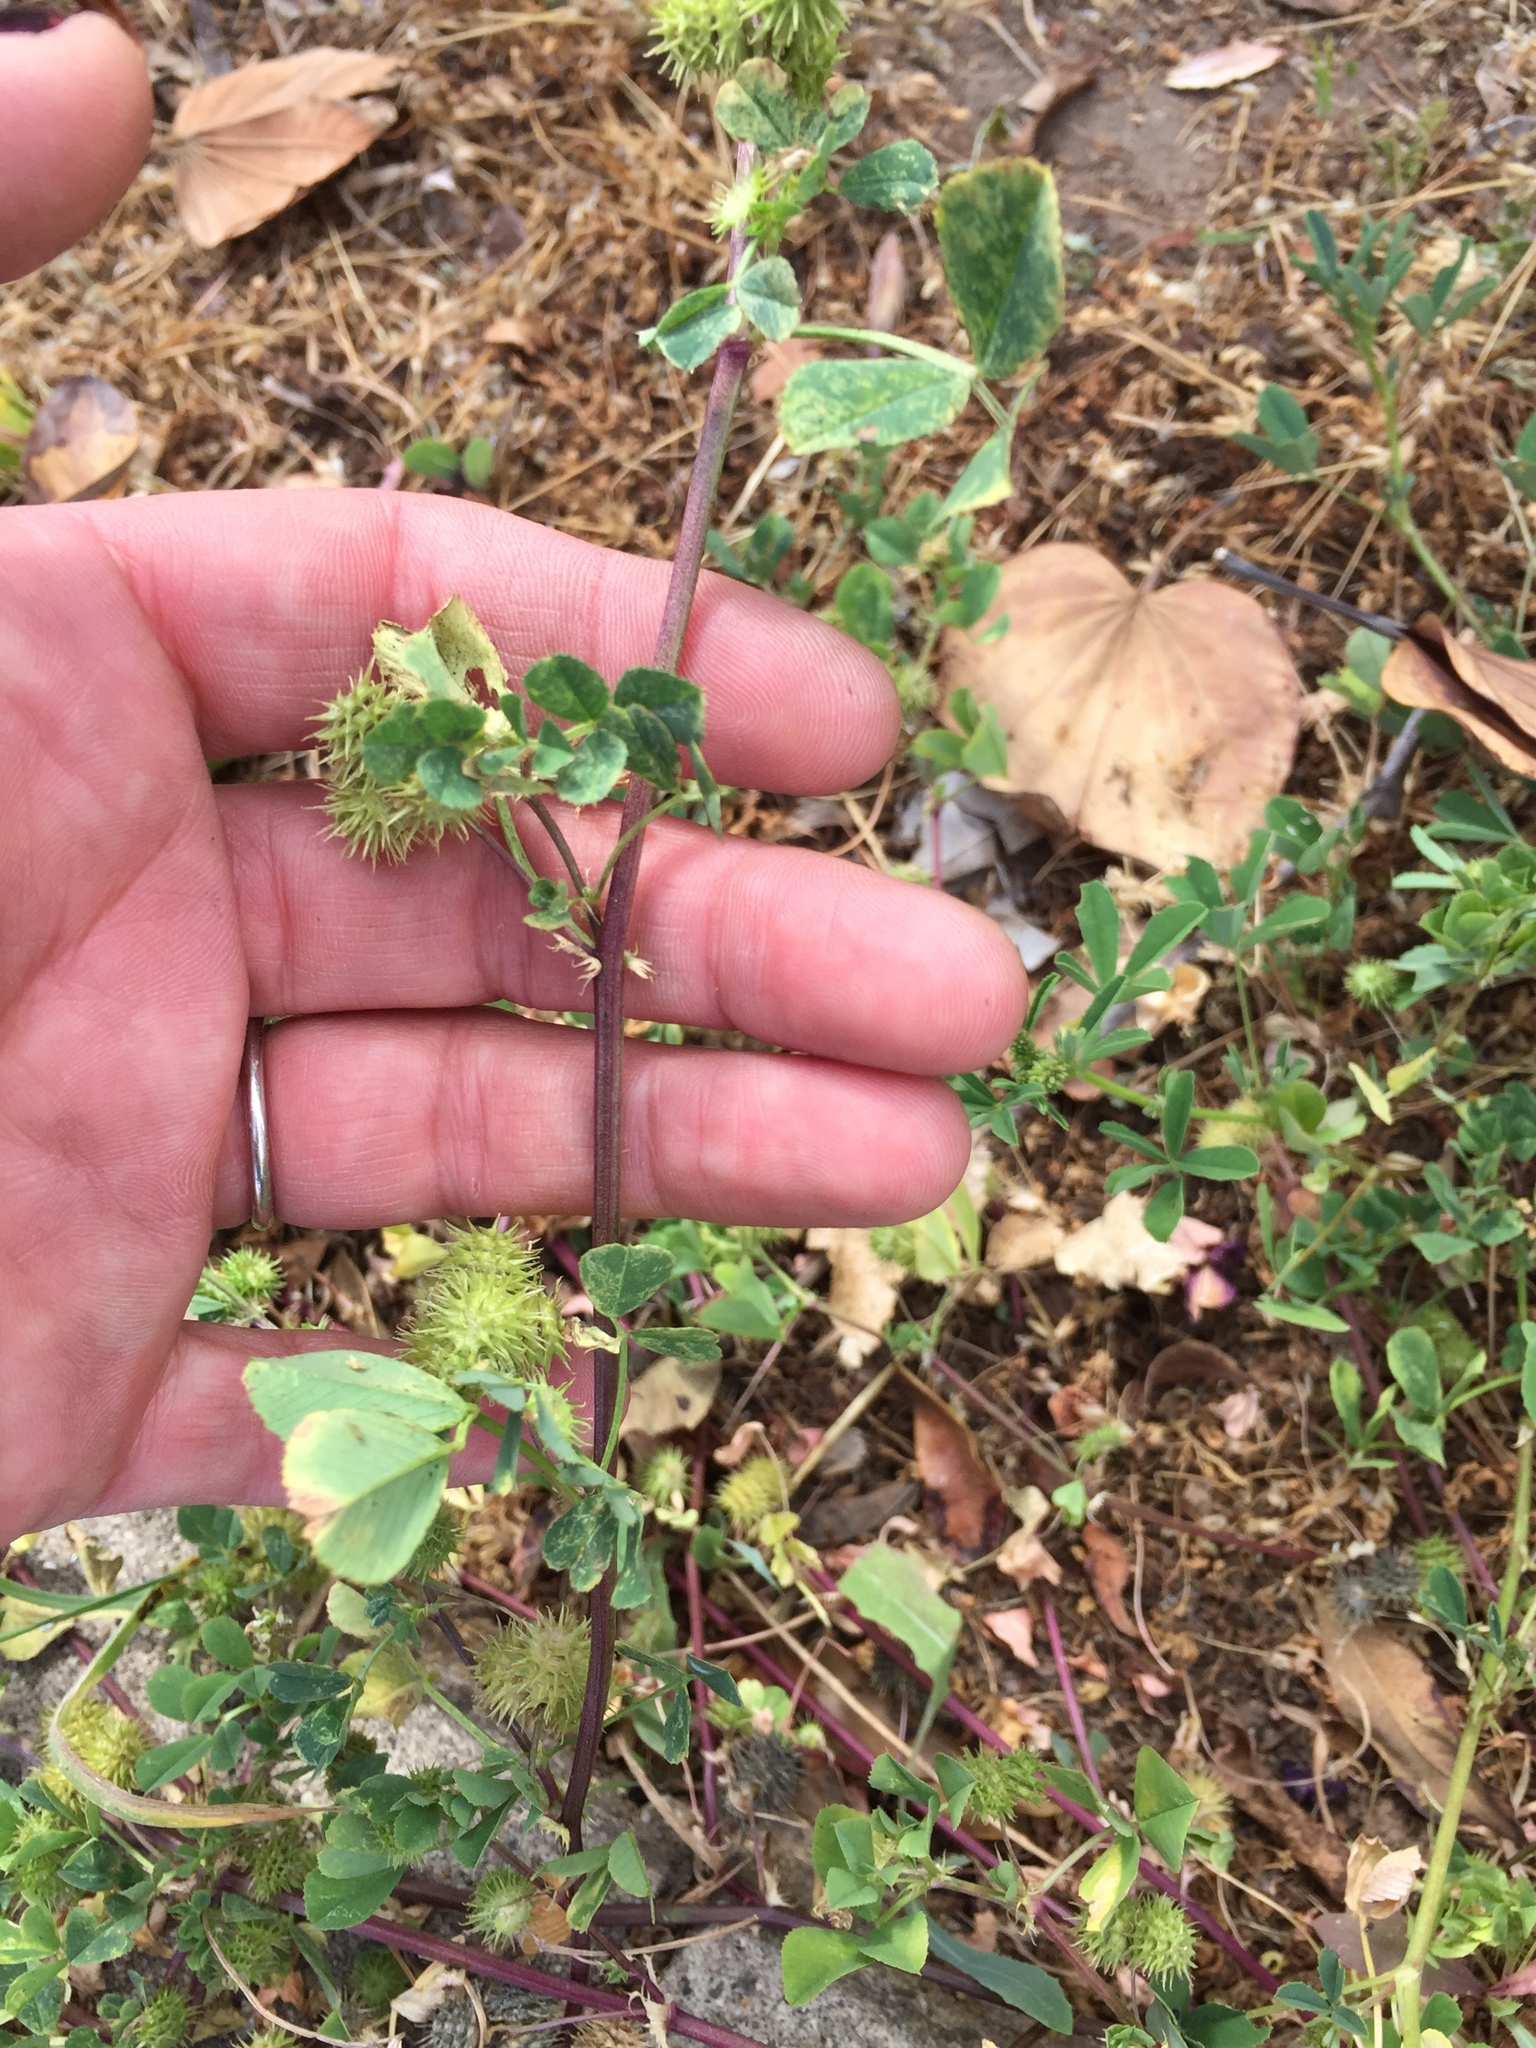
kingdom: Plantae
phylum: Tracheophyta
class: Magnoliopsida
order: Fabales
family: Fabaceae
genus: Medicago
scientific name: Medicago polymorpha
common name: Burclover
